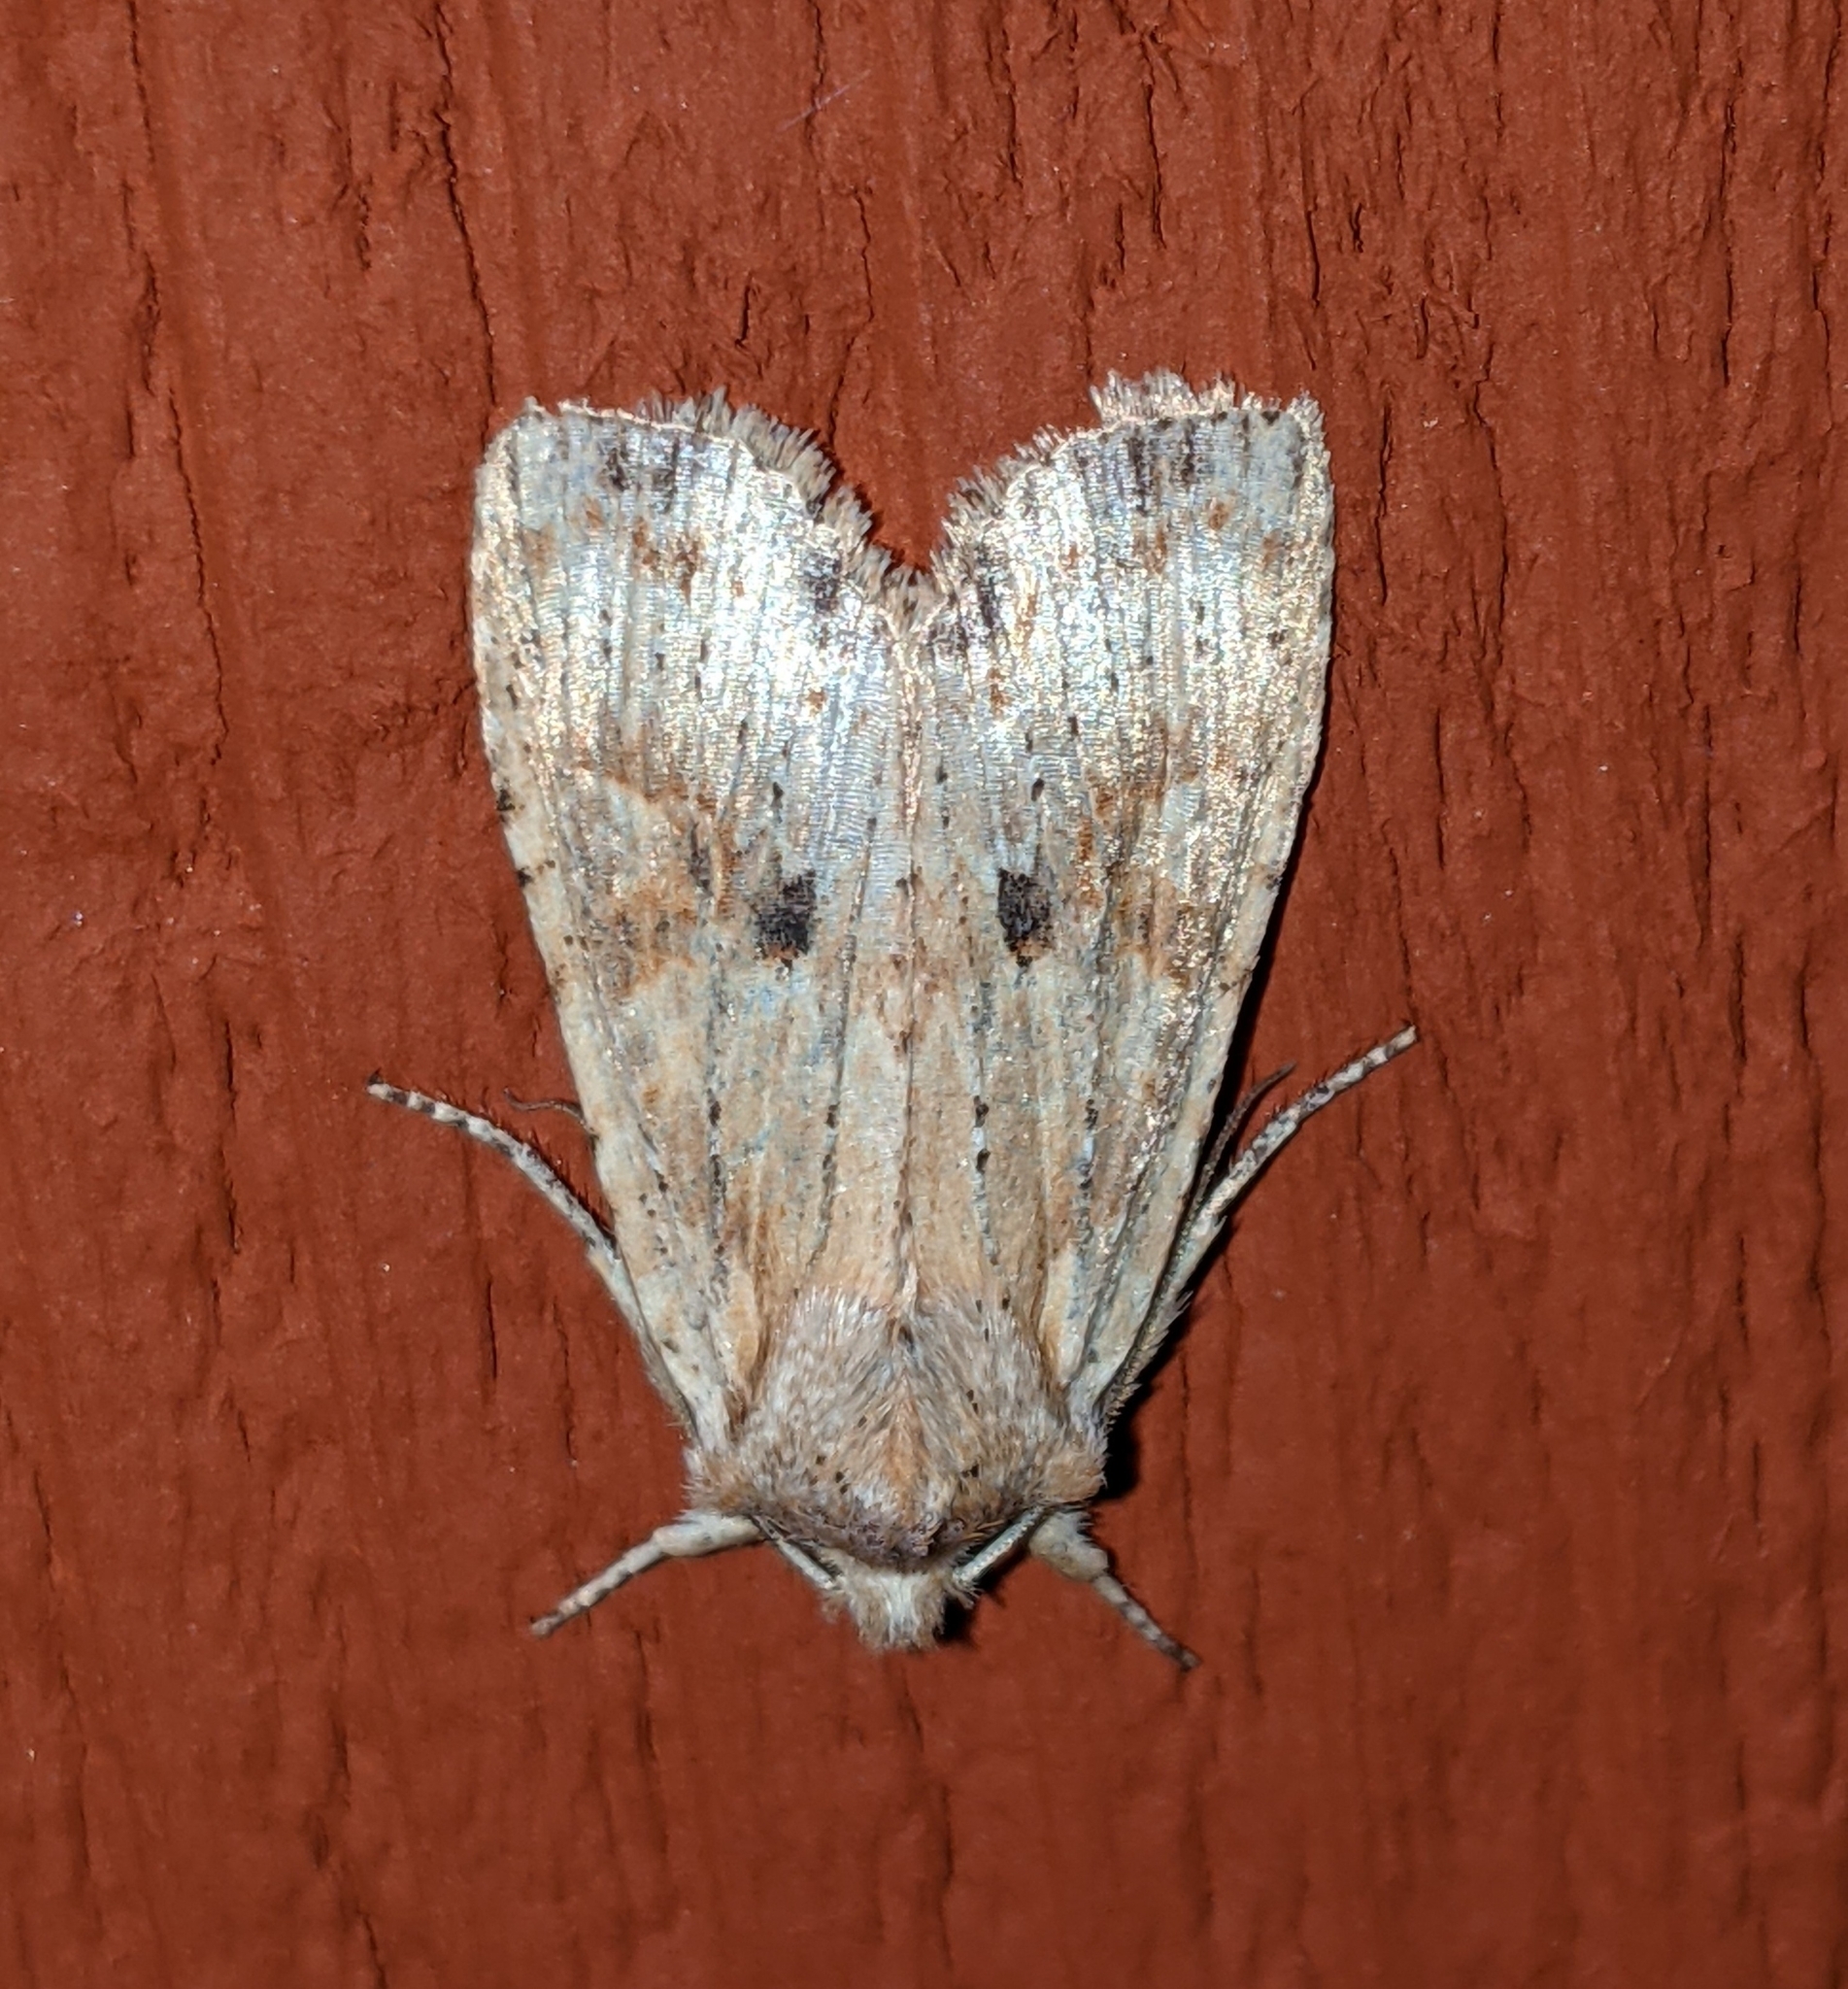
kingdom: Animalia
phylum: Arthropoda
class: Insecta
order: Lepidoptera
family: Noctuidae
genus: Lithophane
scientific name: Lithophane innominata
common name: Nameless pinion moth
